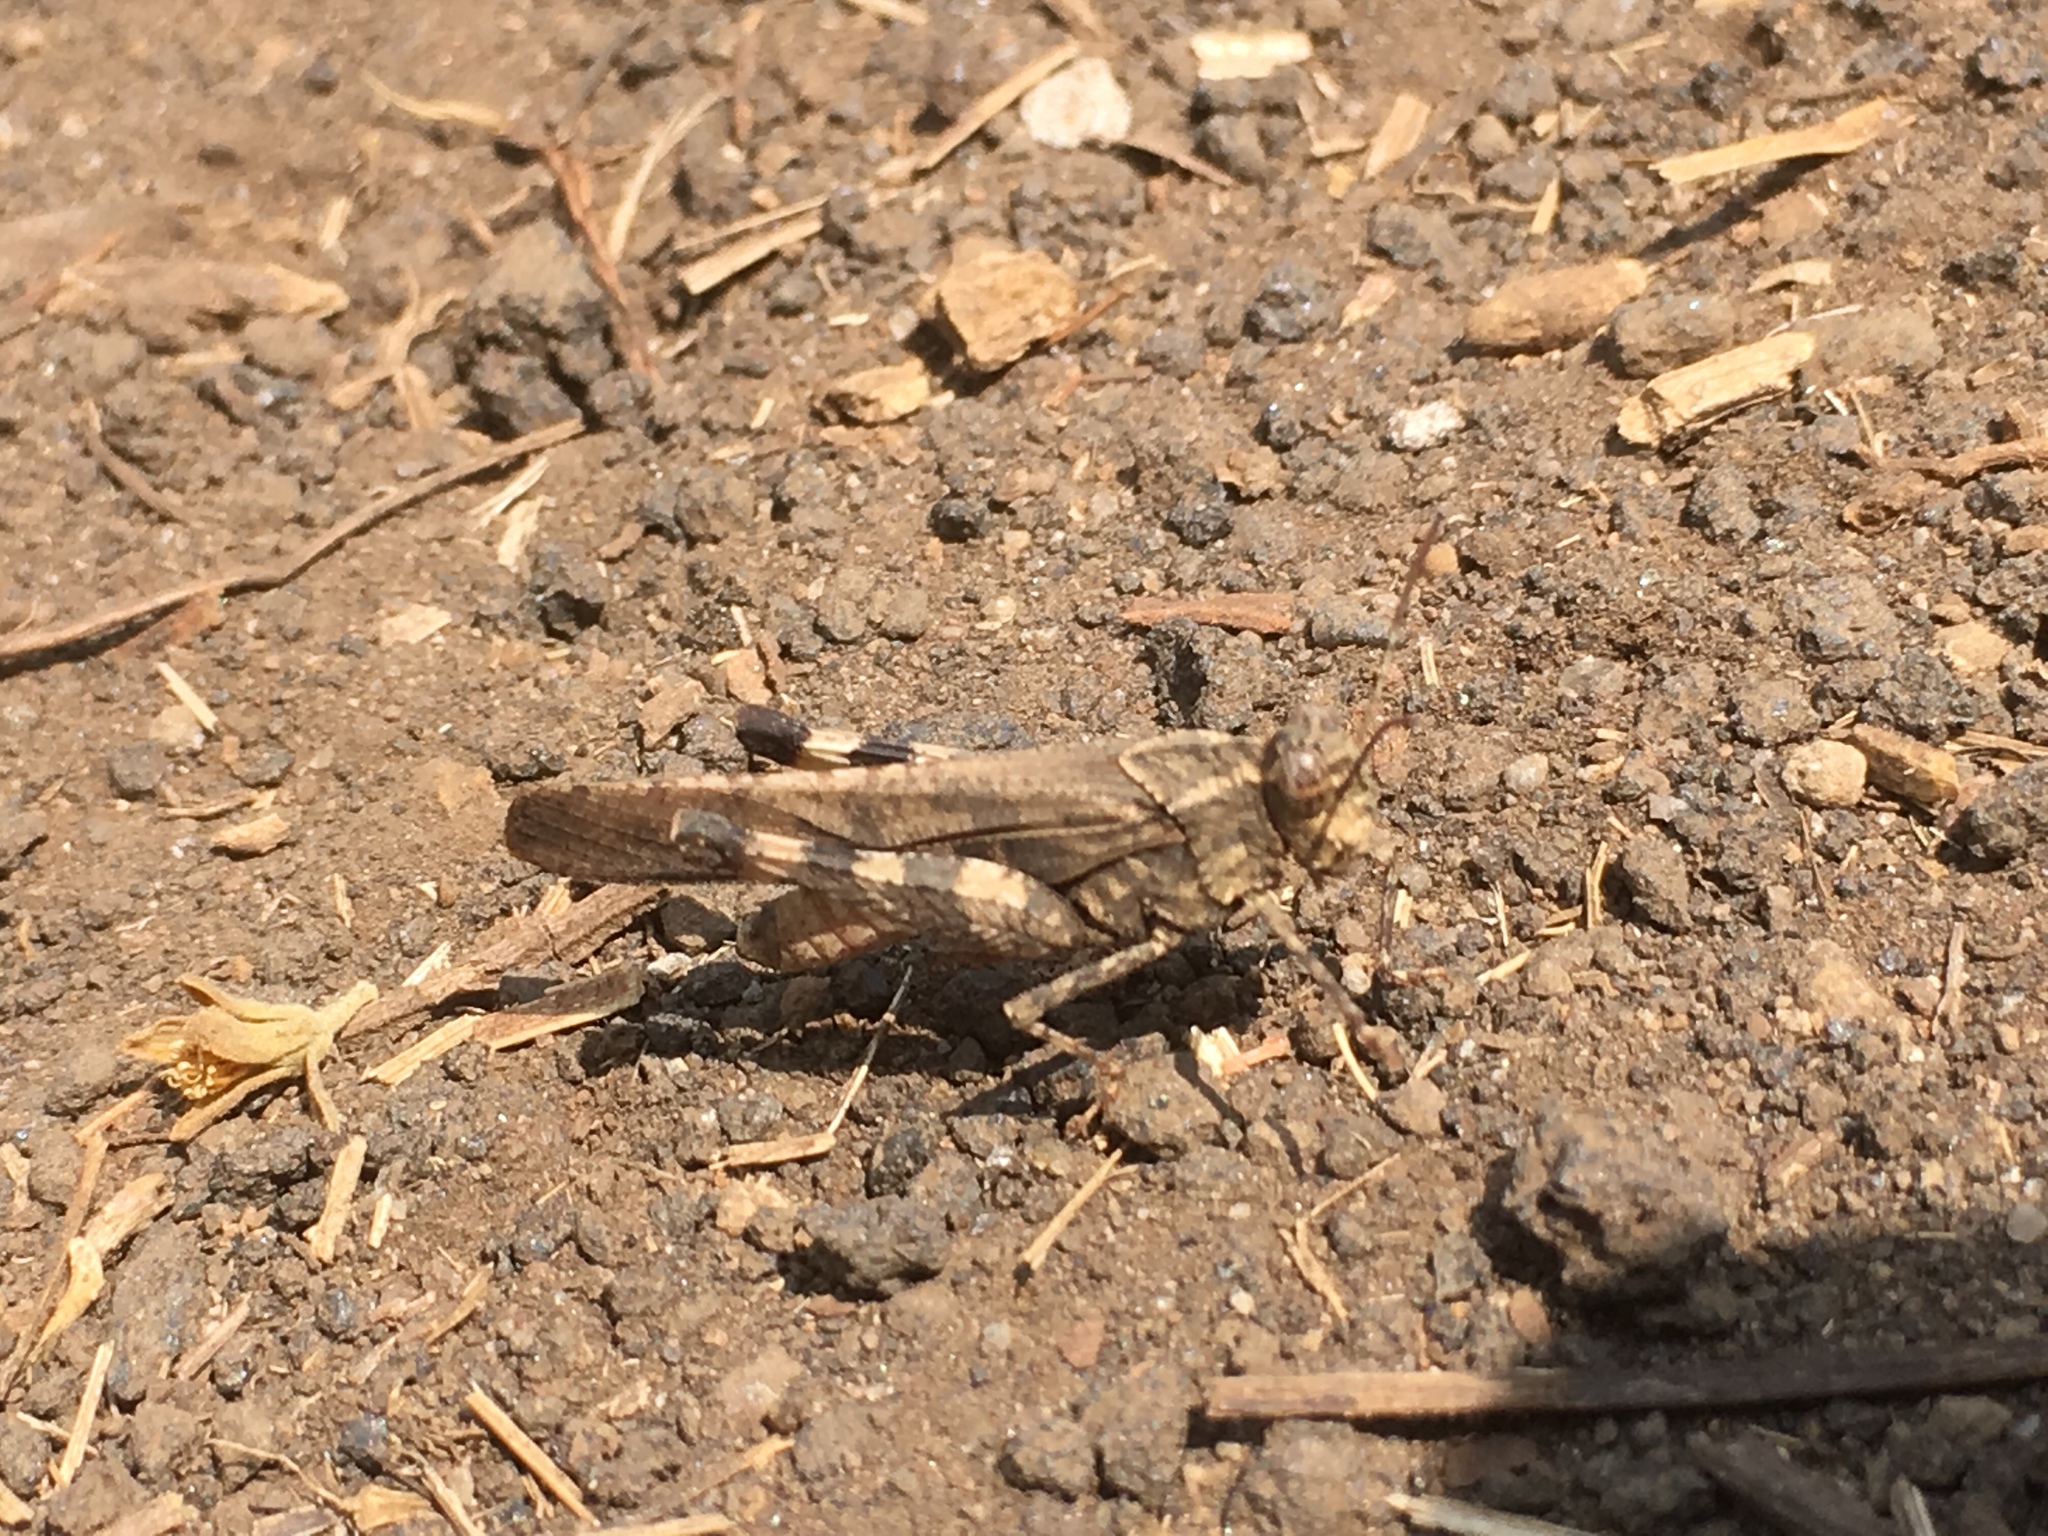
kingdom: Animalia
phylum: Arthropoda
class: Insecta
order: Orthoptera
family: Acrididae
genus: Lactista
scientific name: Lactista stramineus
